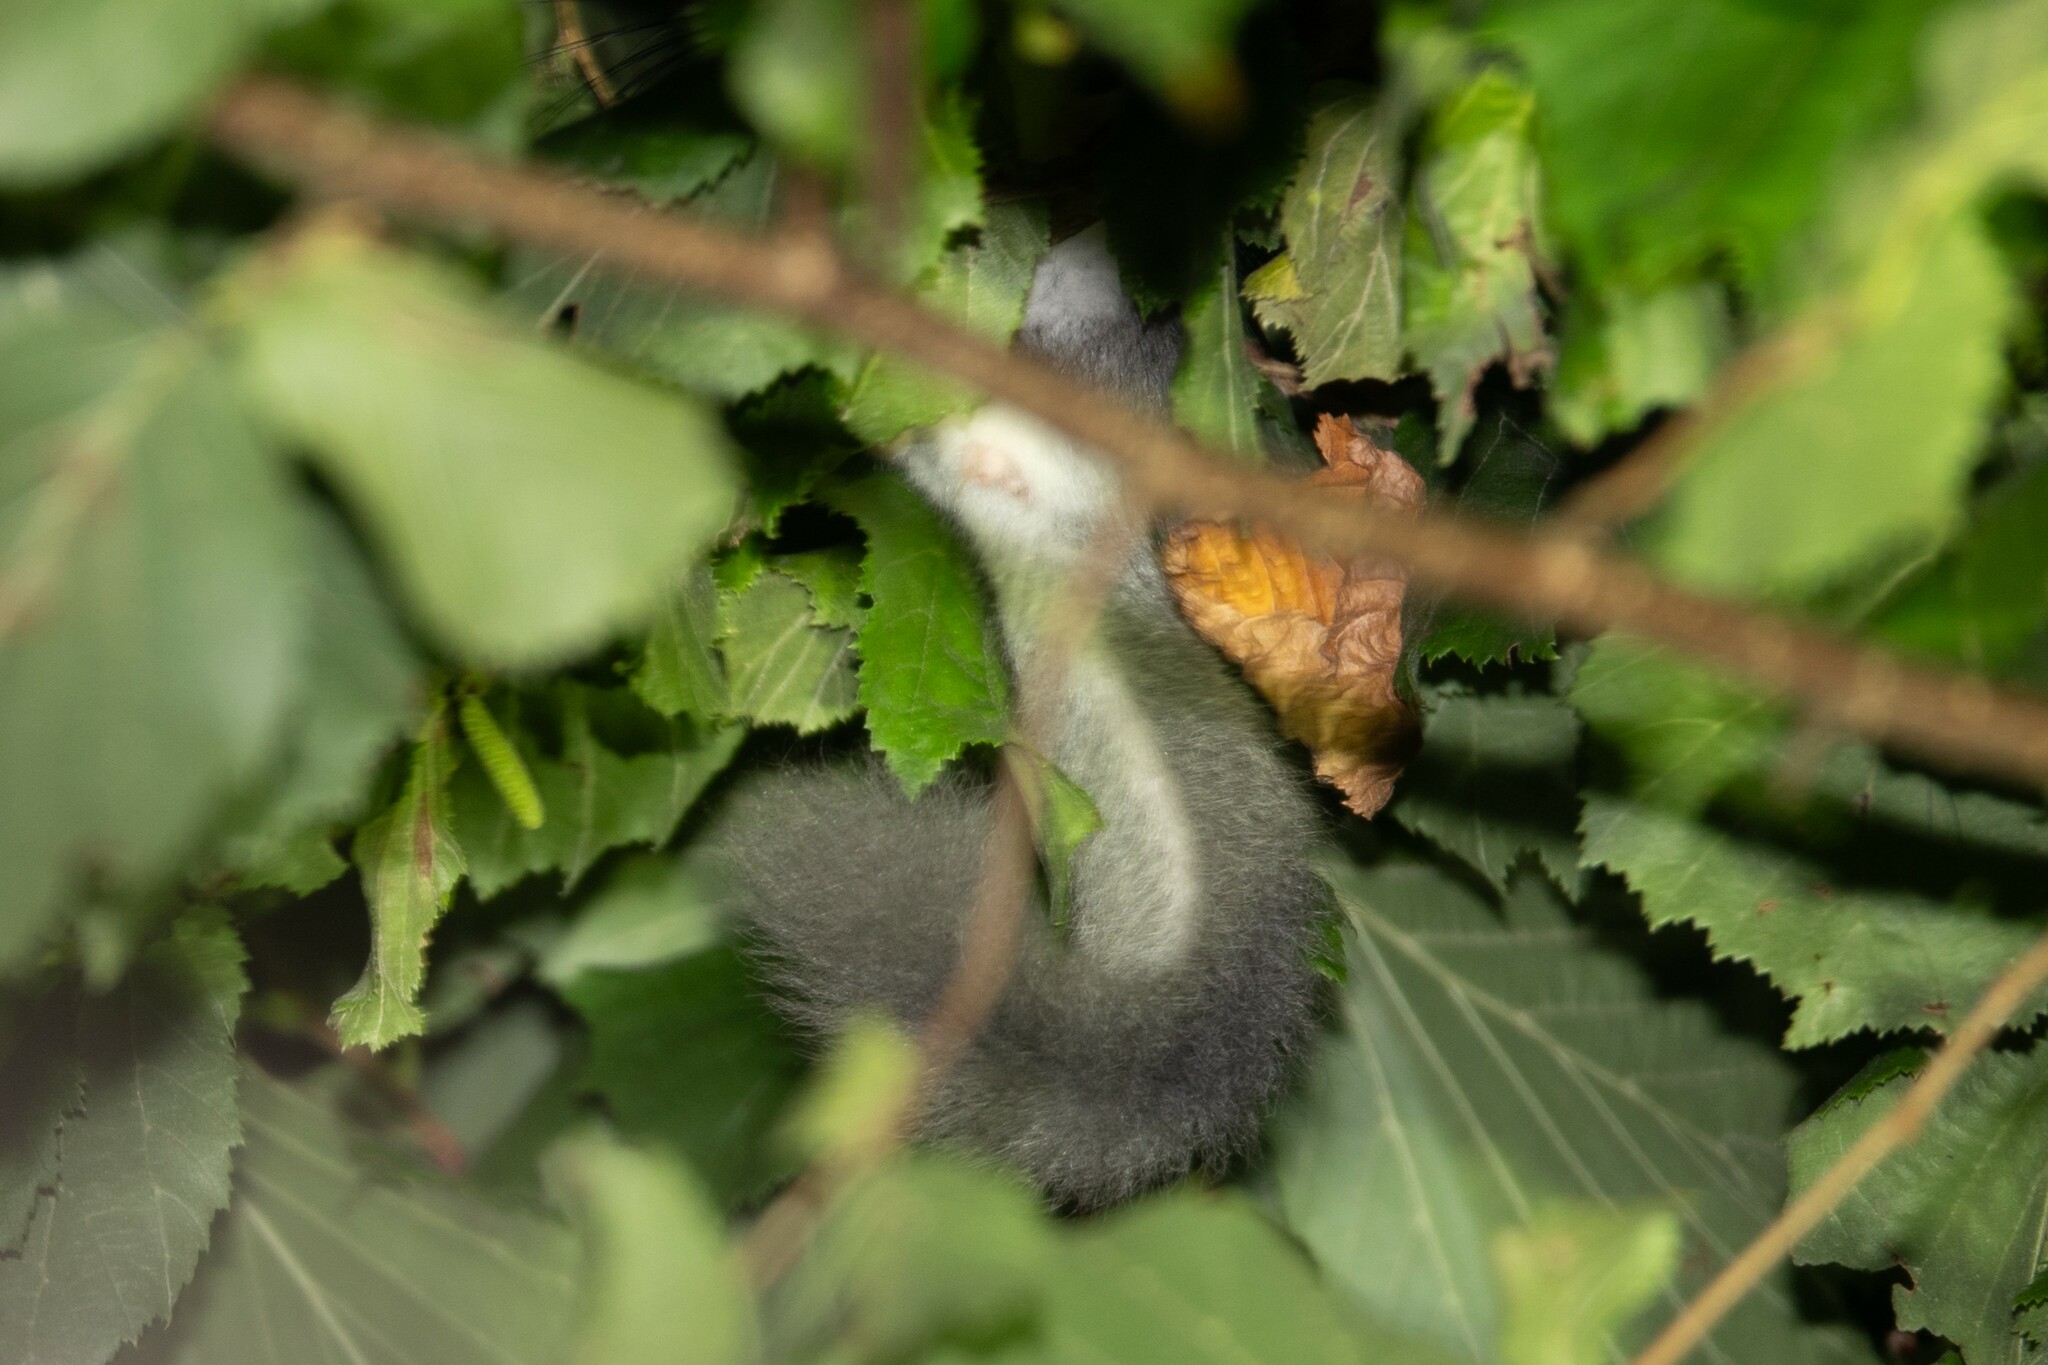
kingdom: Animalia
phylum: Chordata
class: Mammalia
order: Rodentia
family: Gliridae
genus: Glis
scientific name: Glis glis
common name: Fat dormouse
